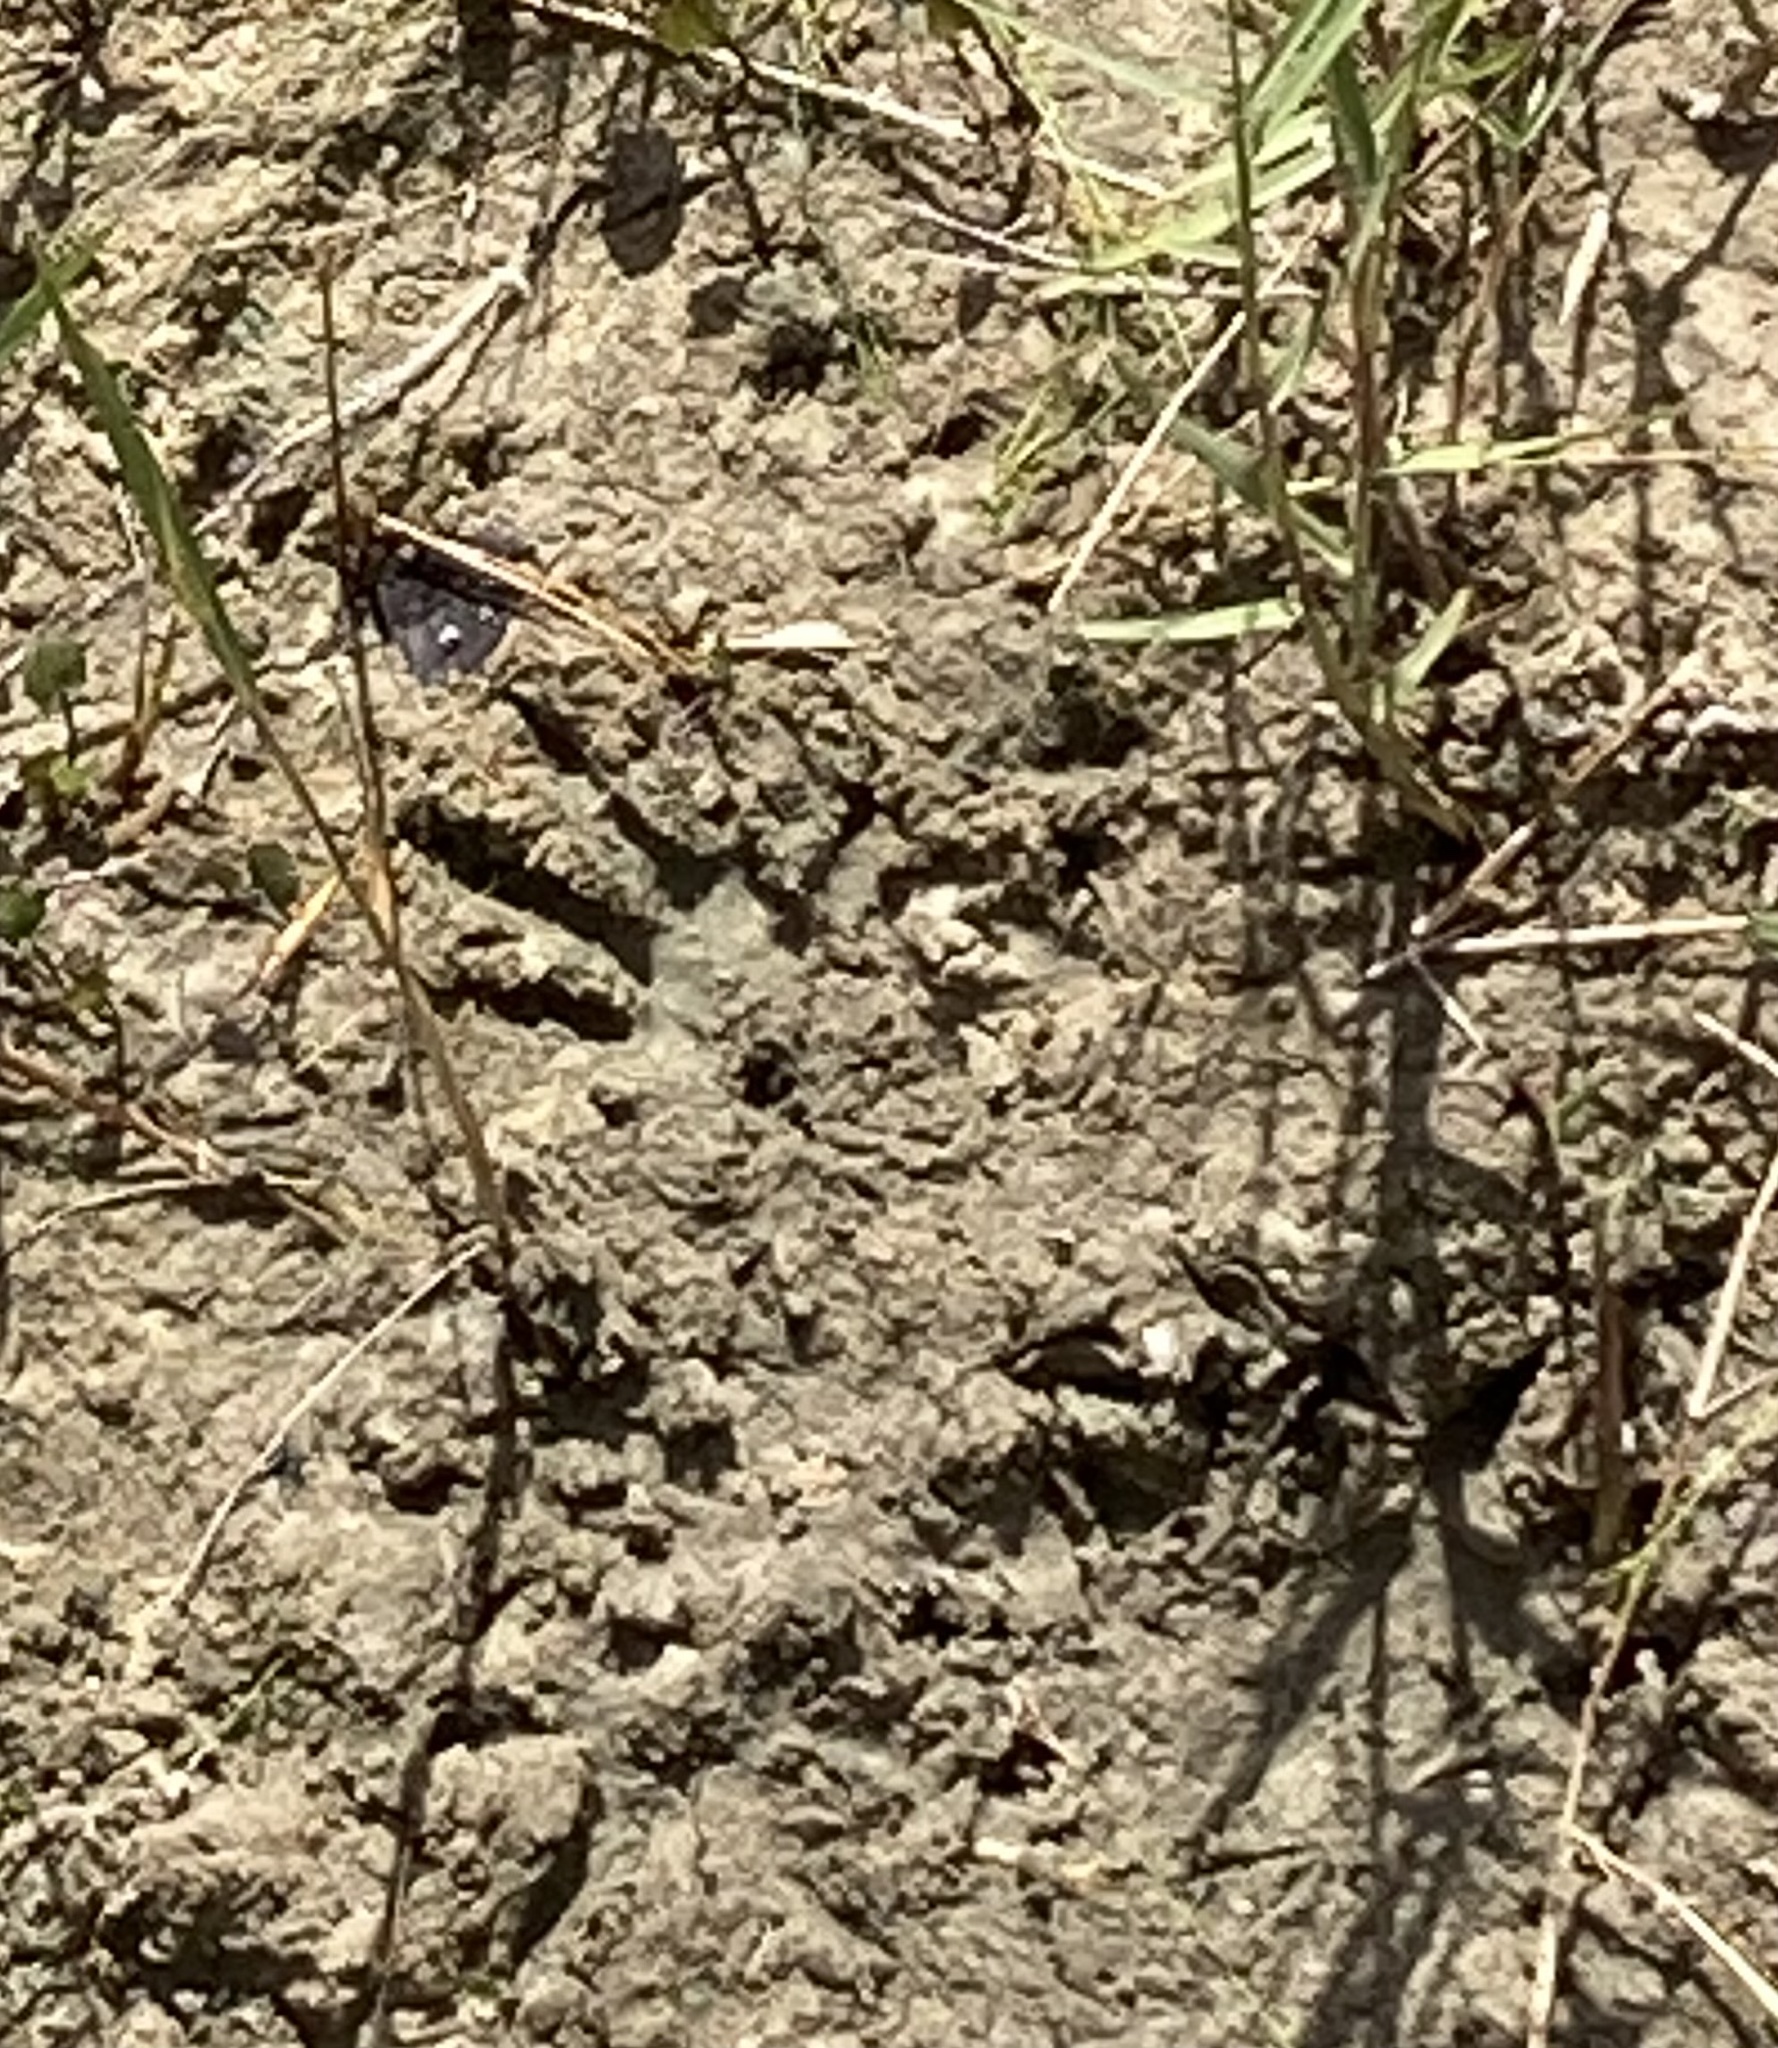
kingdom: Animalia
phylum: Chordata
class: Mammalia
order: Carnivora
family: Procyonidae
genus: Procyon
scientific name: Procyon lotor
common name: Raccoon
